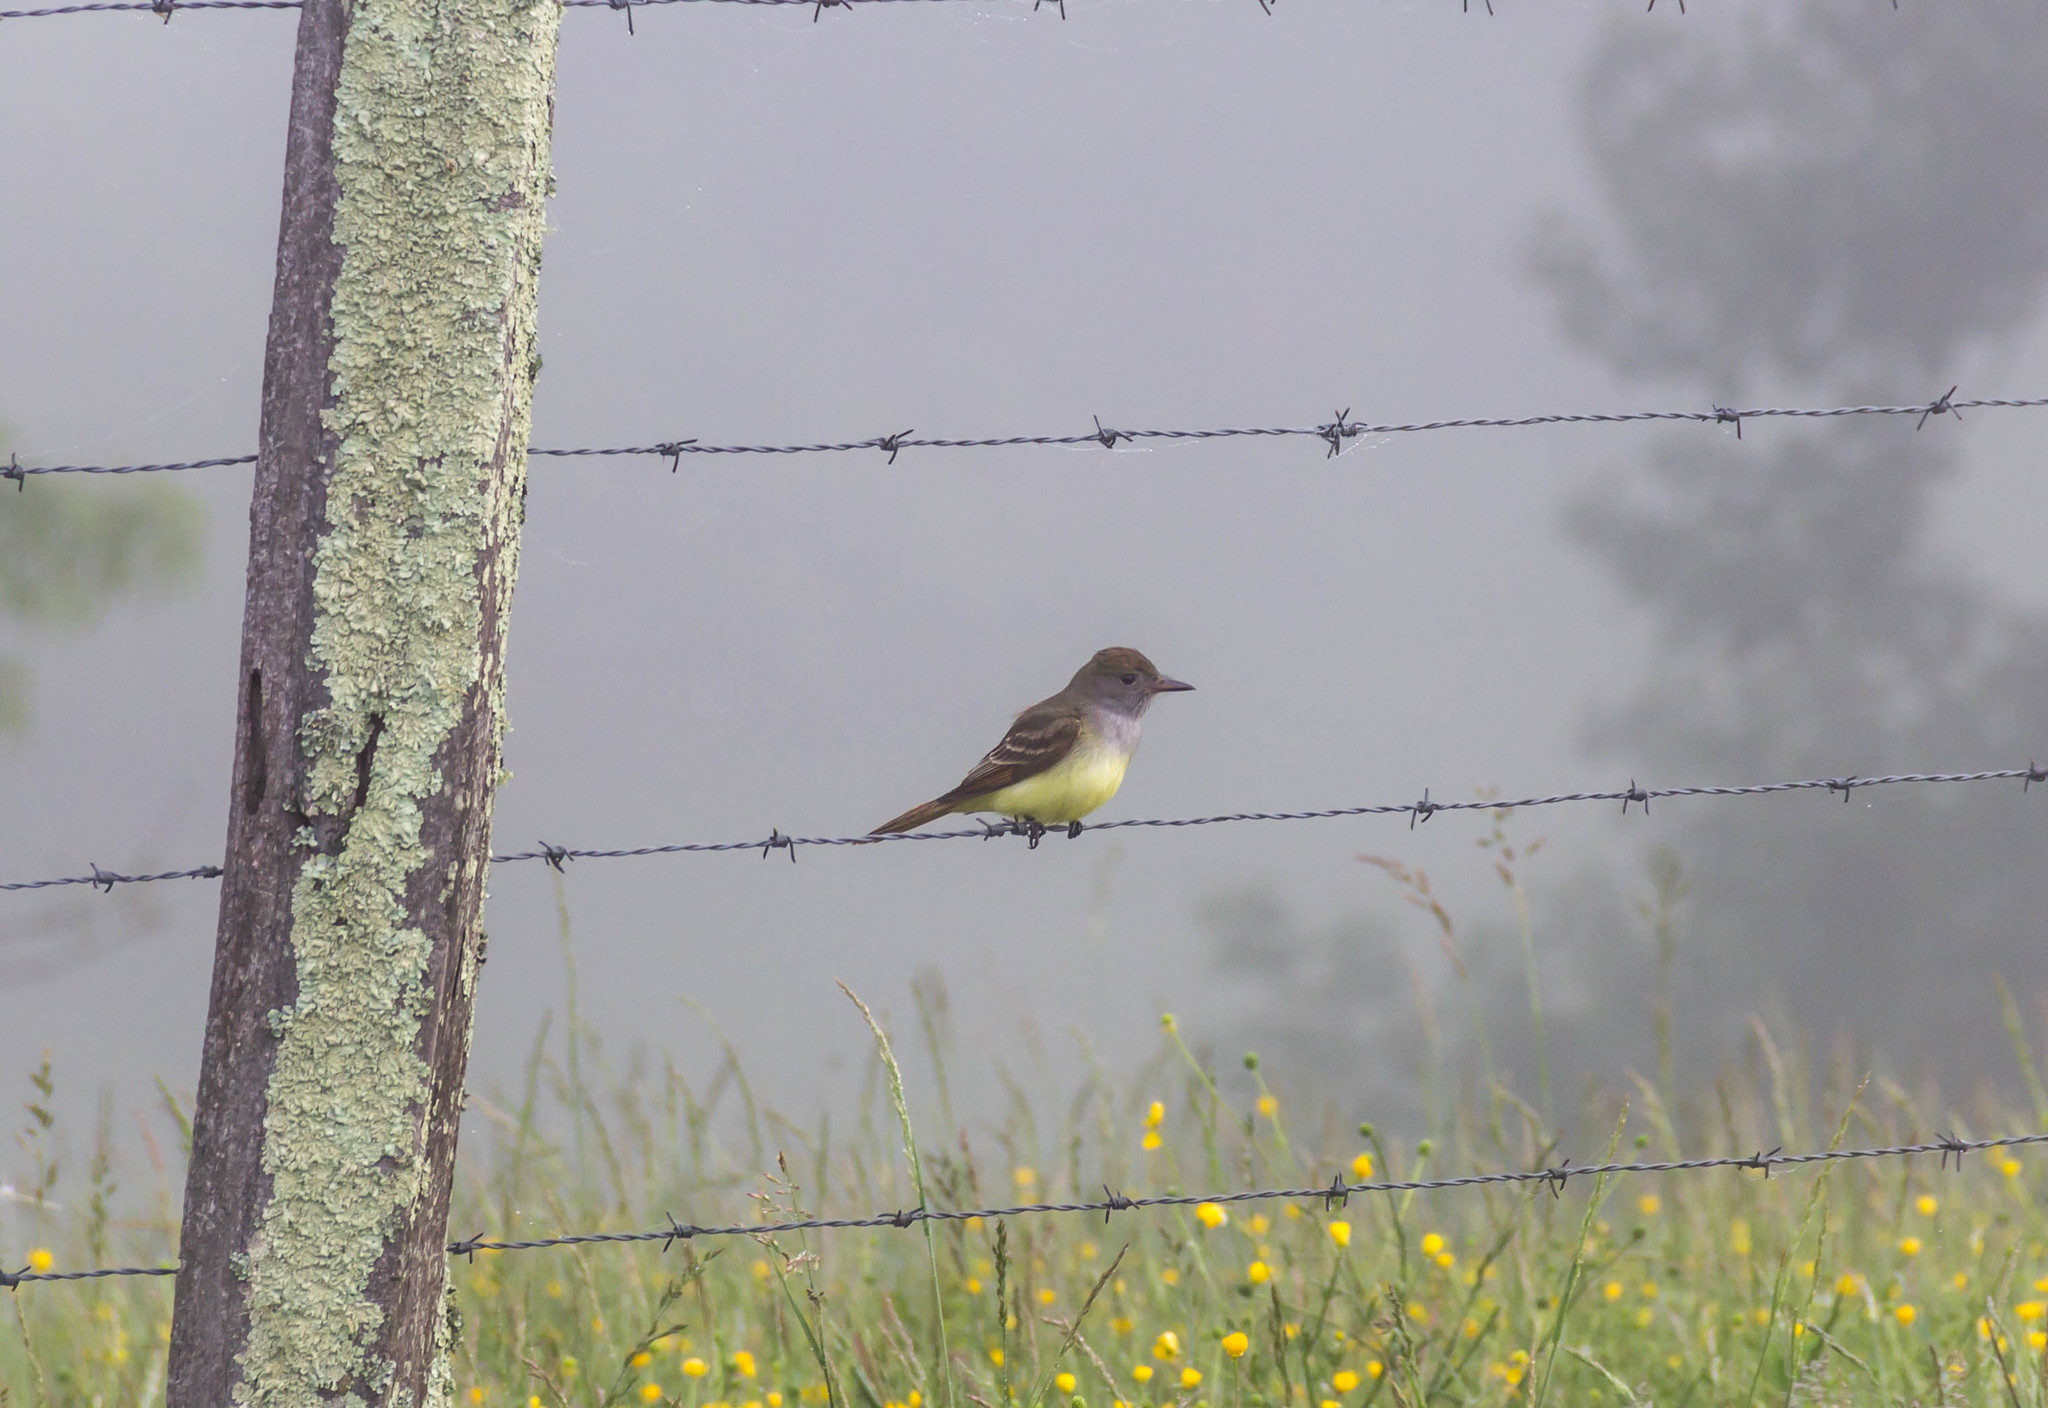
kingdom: Animalia
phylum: Chordata
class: Aves
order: Passeriformes
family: Tyrannidae
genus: Myiarchus
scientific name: Myiarchus crinitus
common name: Great crested flycatcher
